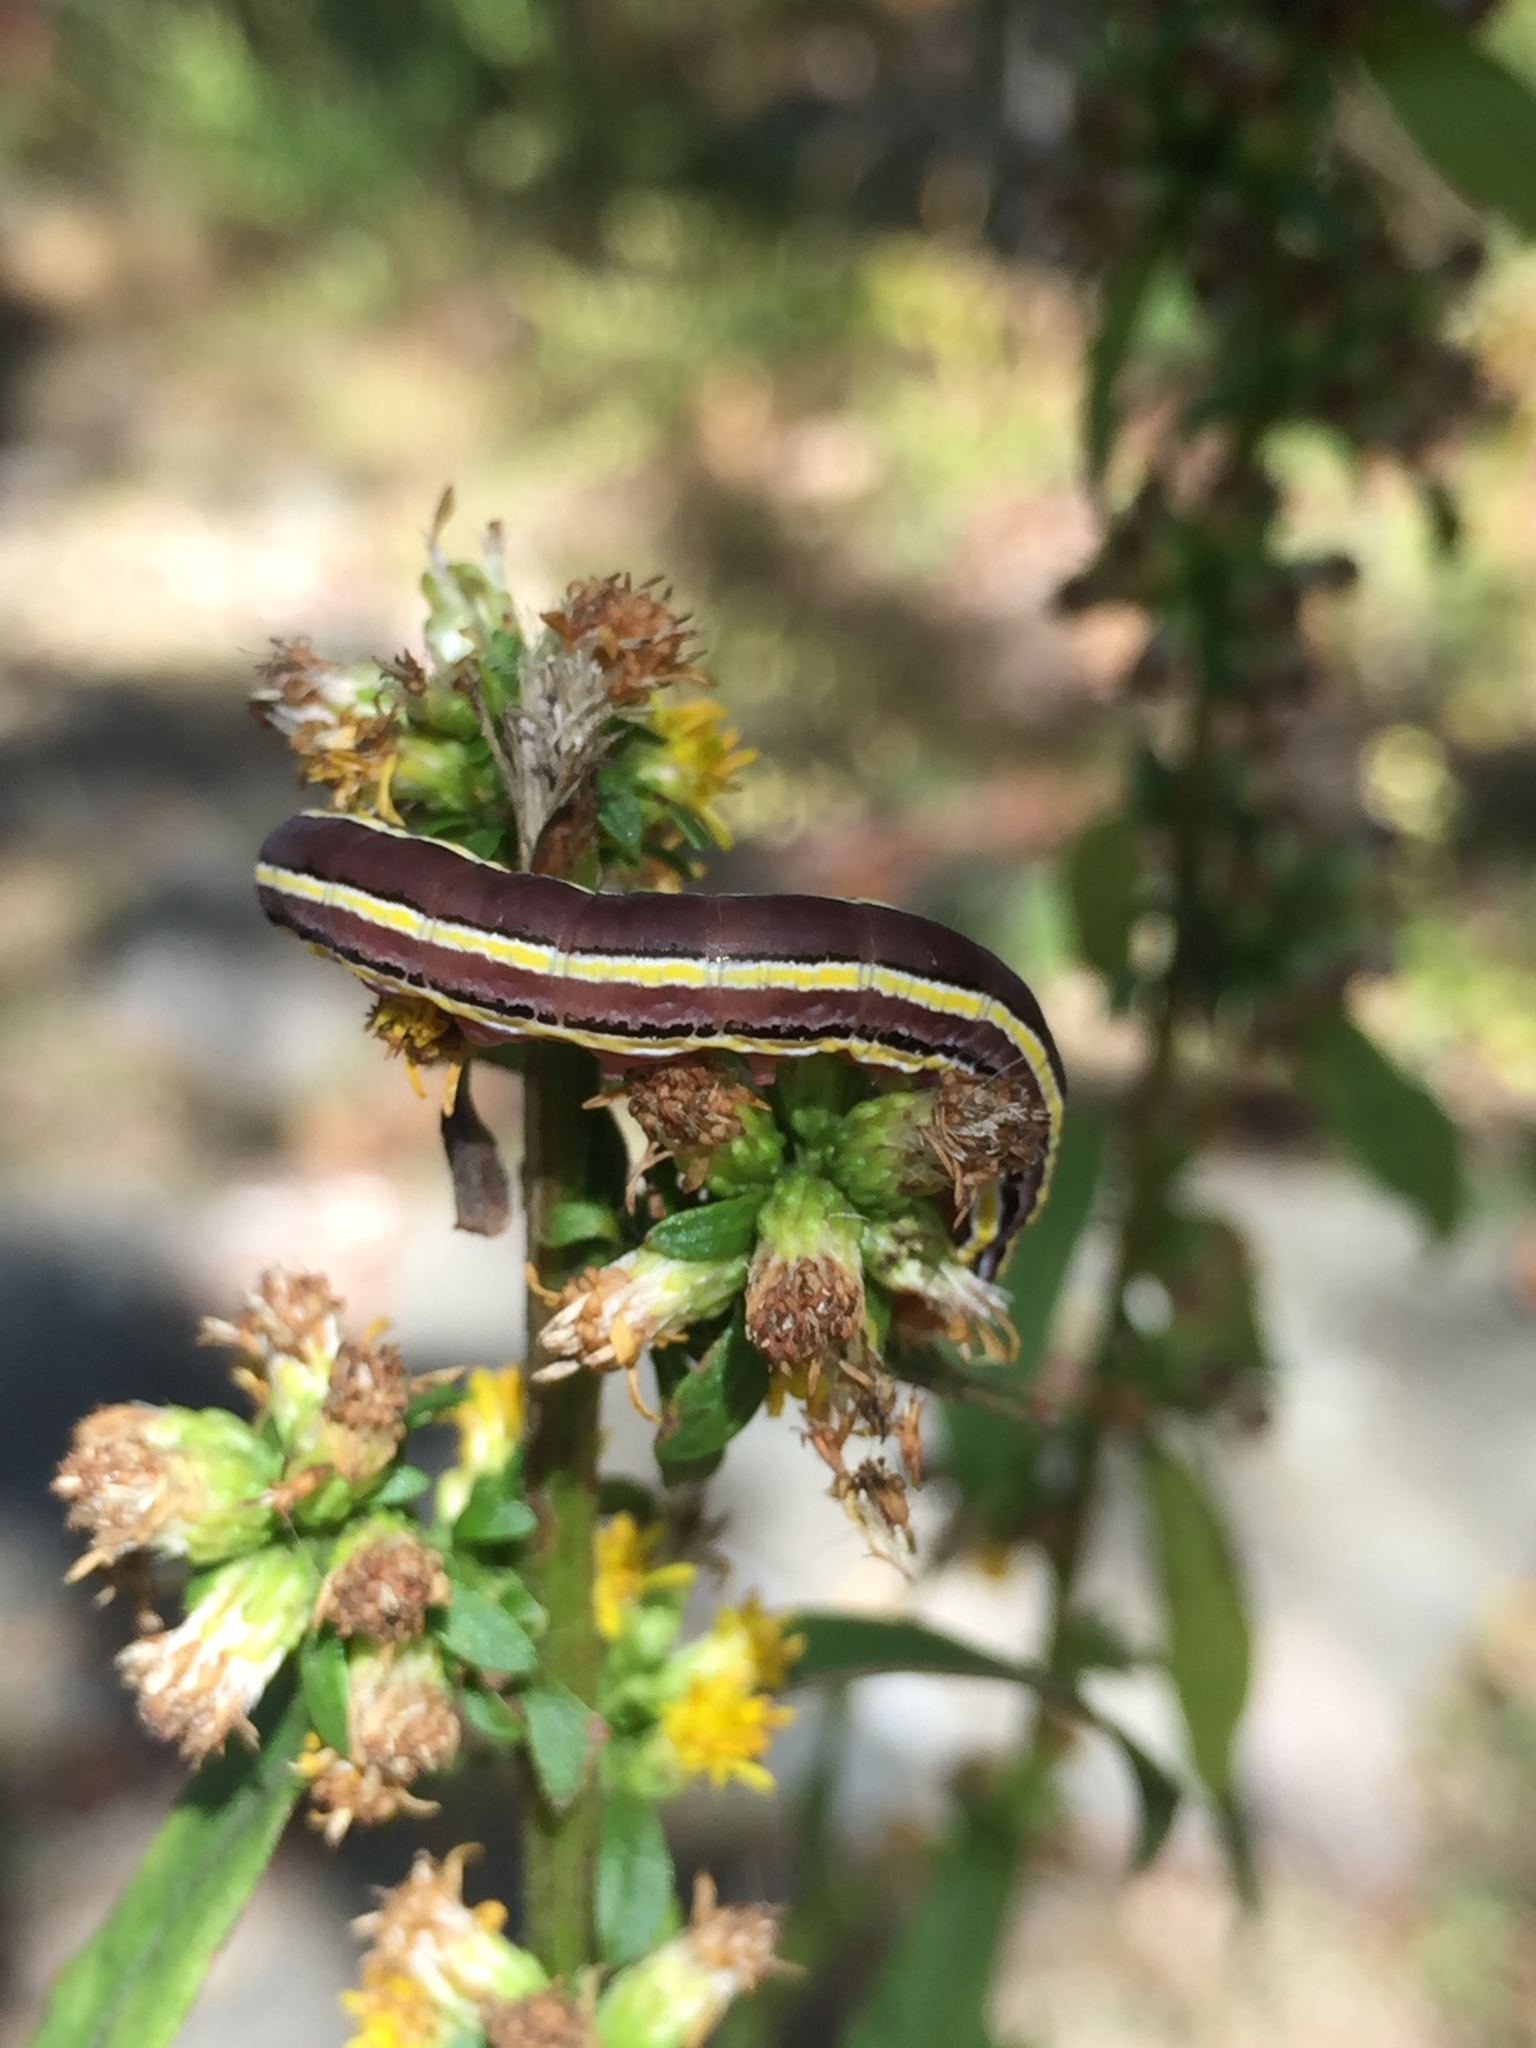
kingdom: Animalia
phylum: Arthropoda
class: Insecta
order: Lepidoptera
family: Noctuidae
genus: Trichordestra
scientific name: Trichordestra legitima
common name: Striped garden caterpillar
